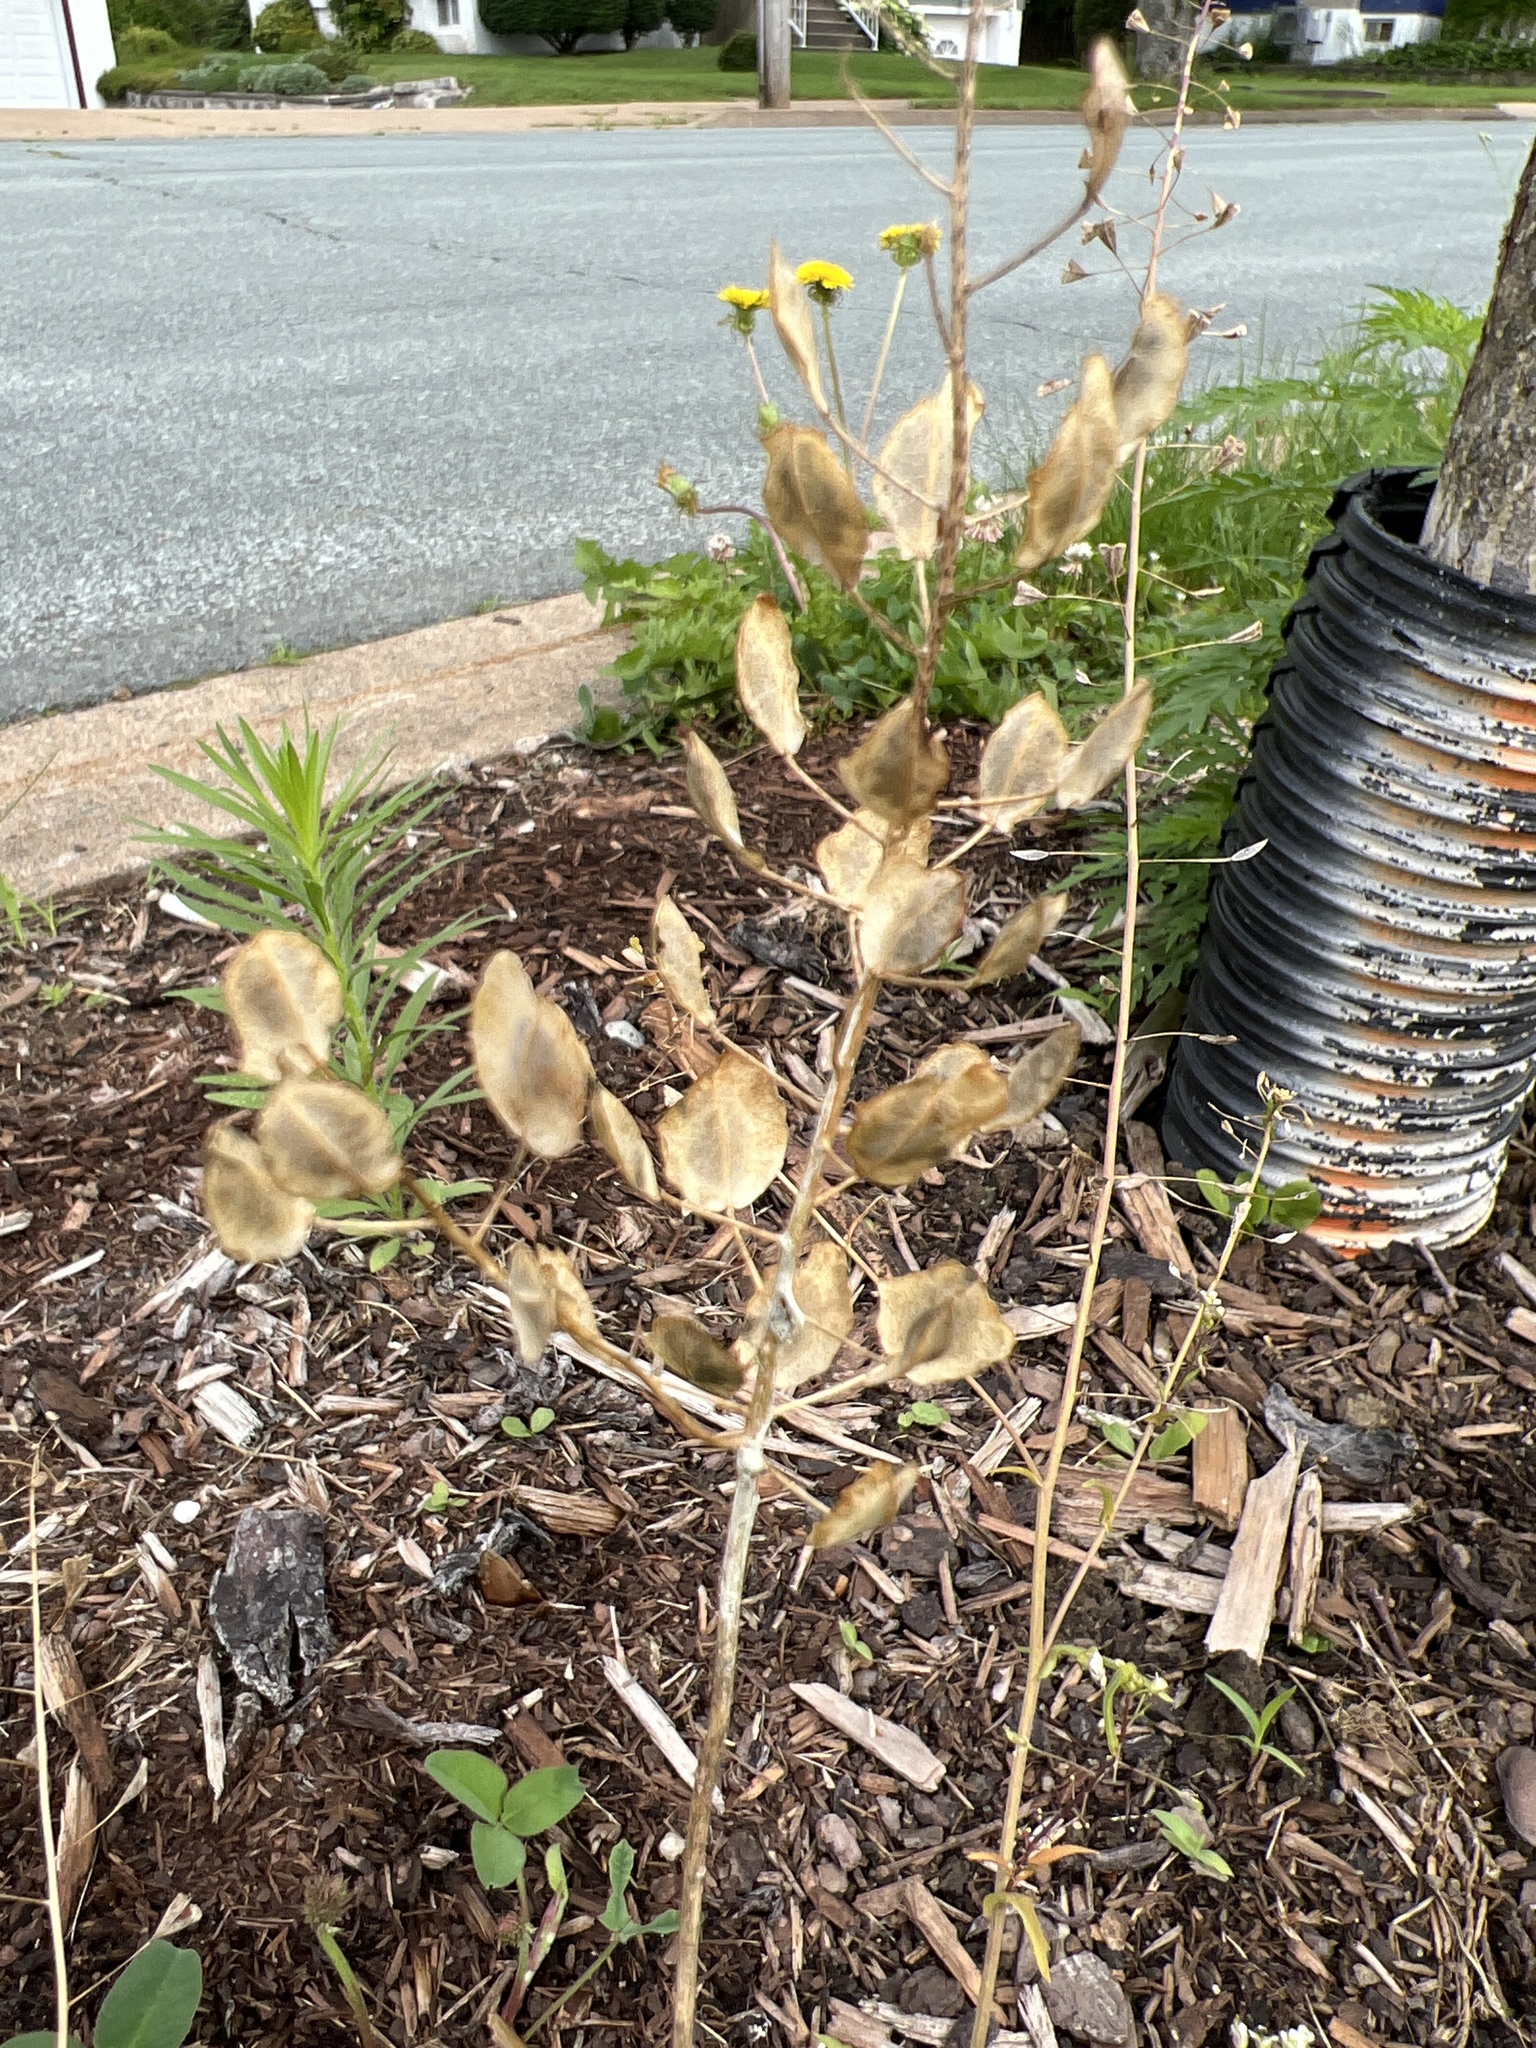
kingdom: Plantae
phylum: Tracheophyta
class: Magnoliopsida
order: Brassicales
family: Brassicaceae
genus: Thlaspi
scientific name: Thlaspi arvense
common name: Field pennycress
